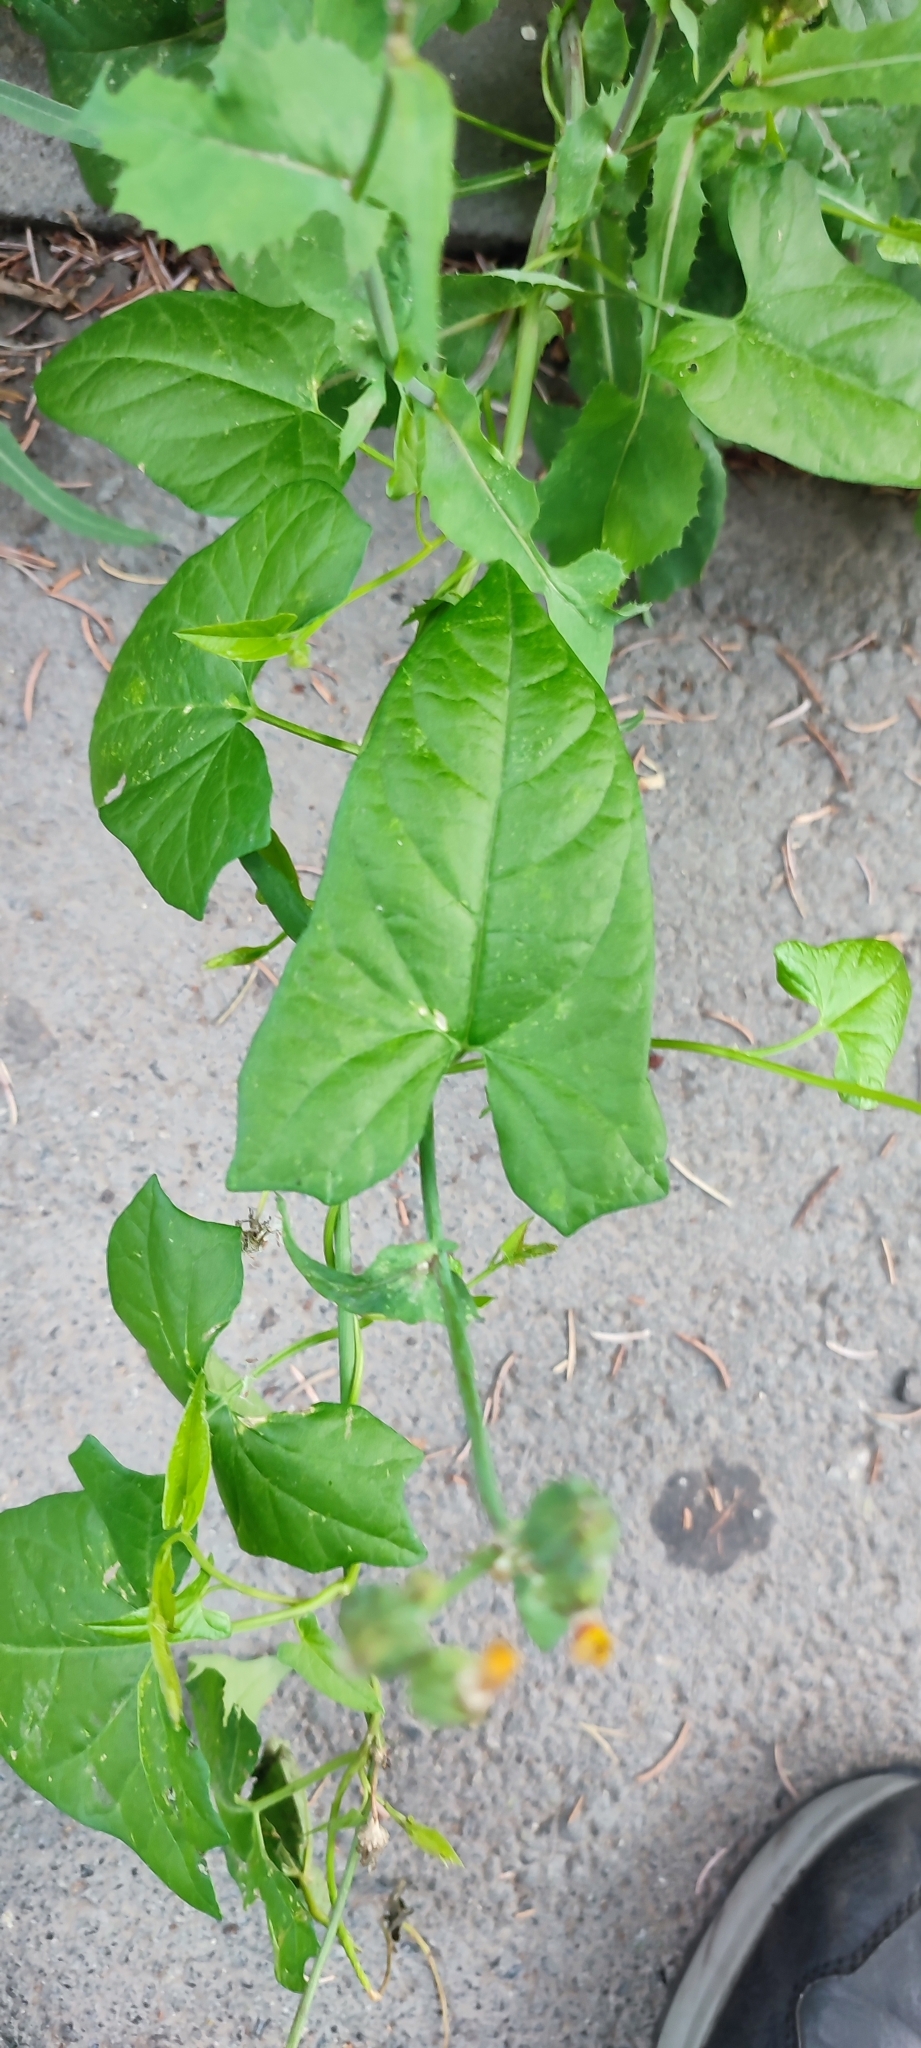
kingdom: Plantae
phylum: Tracheophyta
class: Magnoliopsida
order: Solanales
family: Convolvulaceae
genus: Calystegia
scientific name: Calystegia sepium
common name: Hedge bindweed
